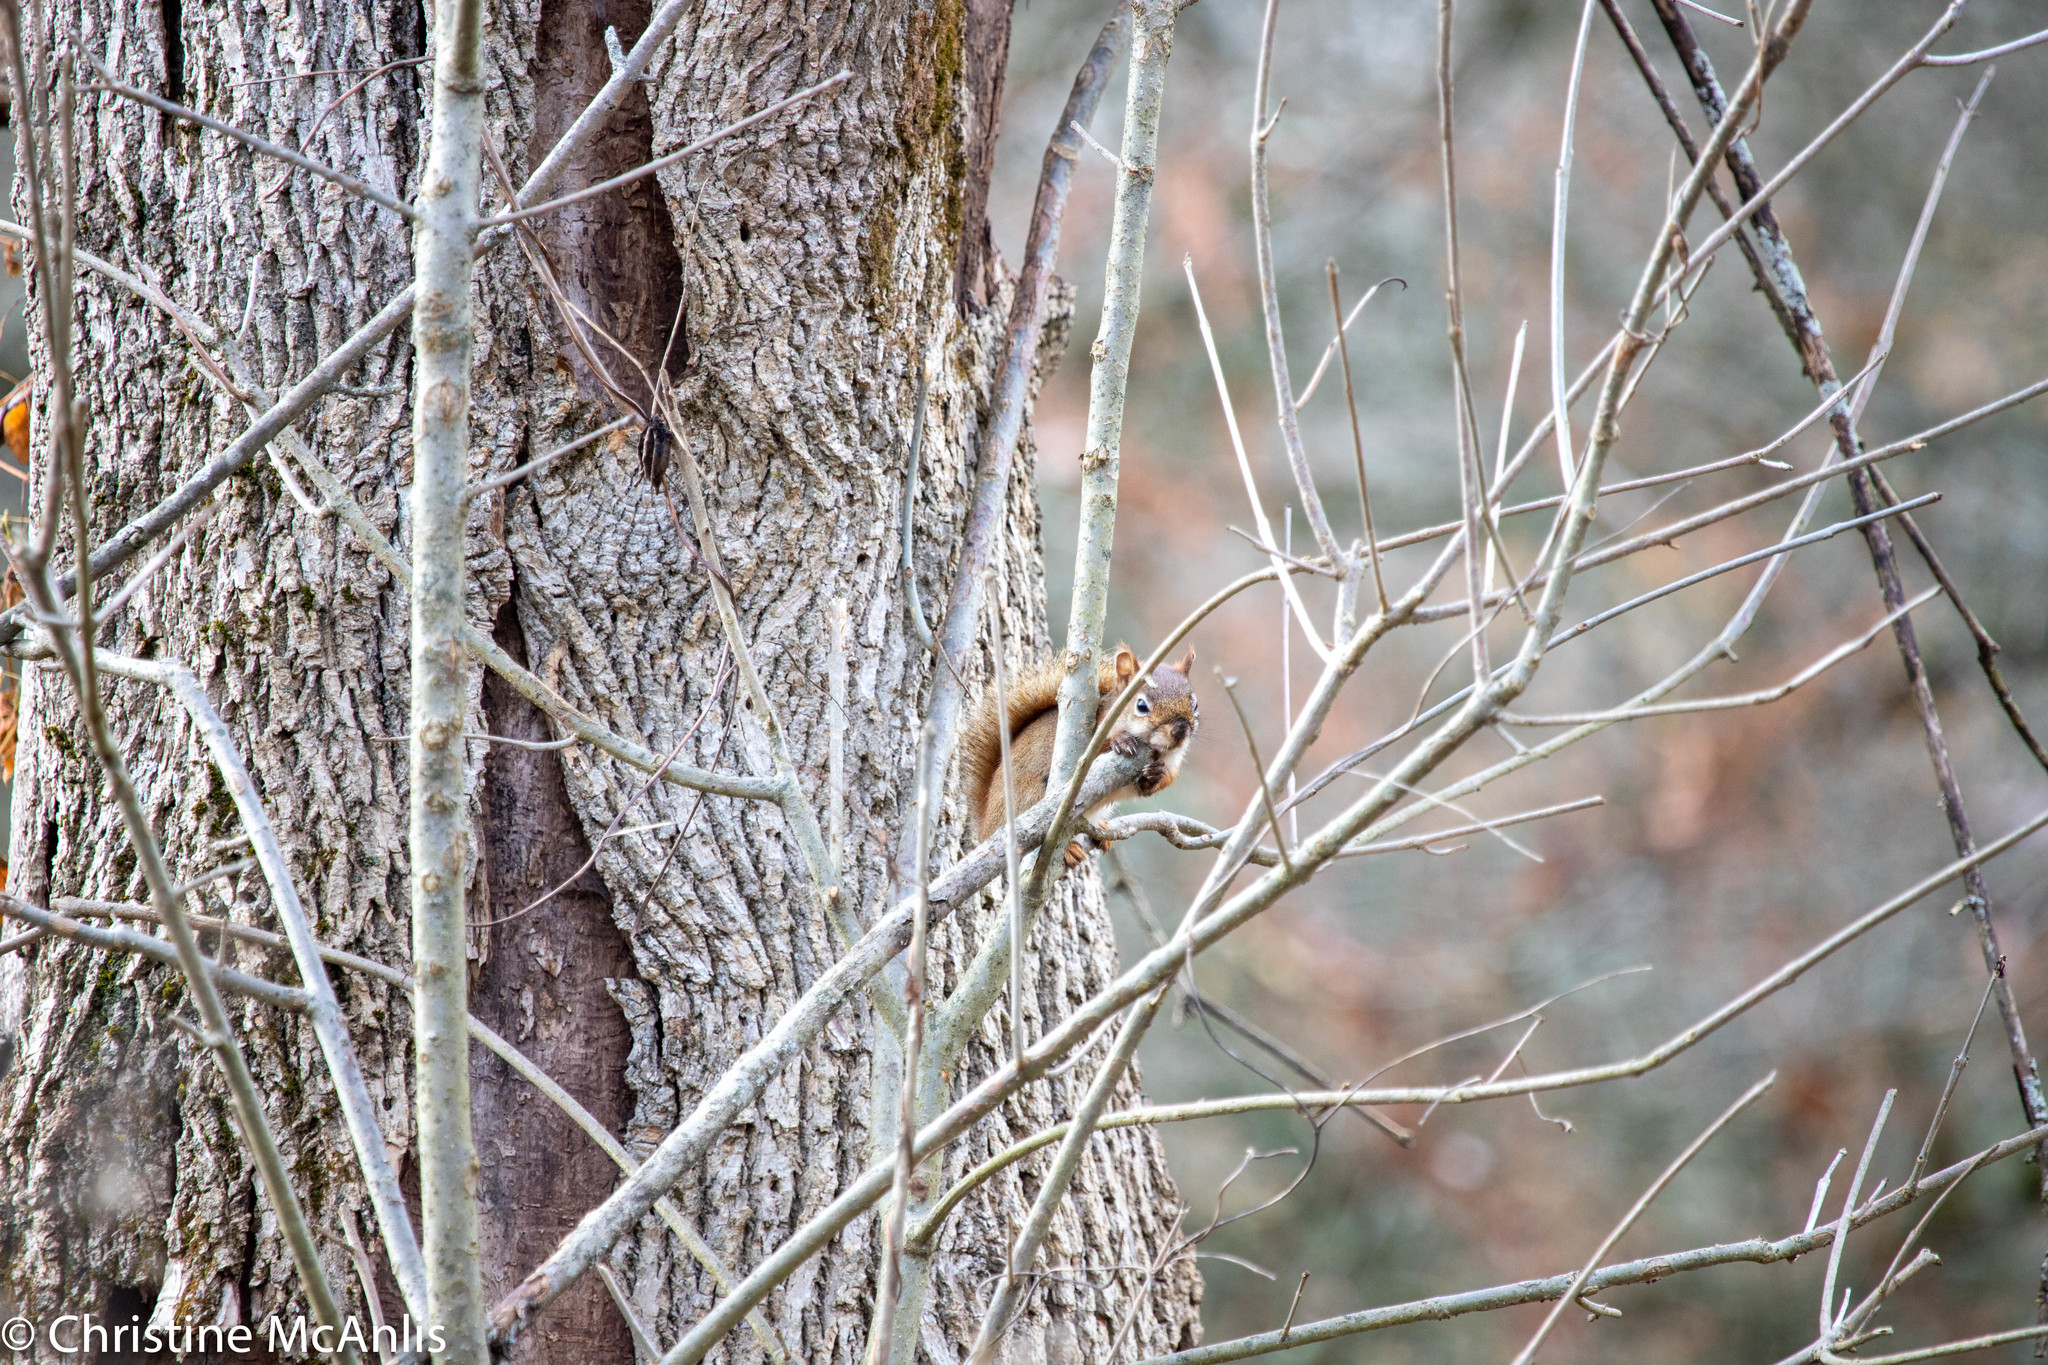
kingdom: Animalia
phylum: Chordata
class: Mammalia
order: Rodentia
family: Sciuridae
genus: Tamiasciurus
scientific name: Tamiasciurus hudsonicus
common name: Red squirrel
